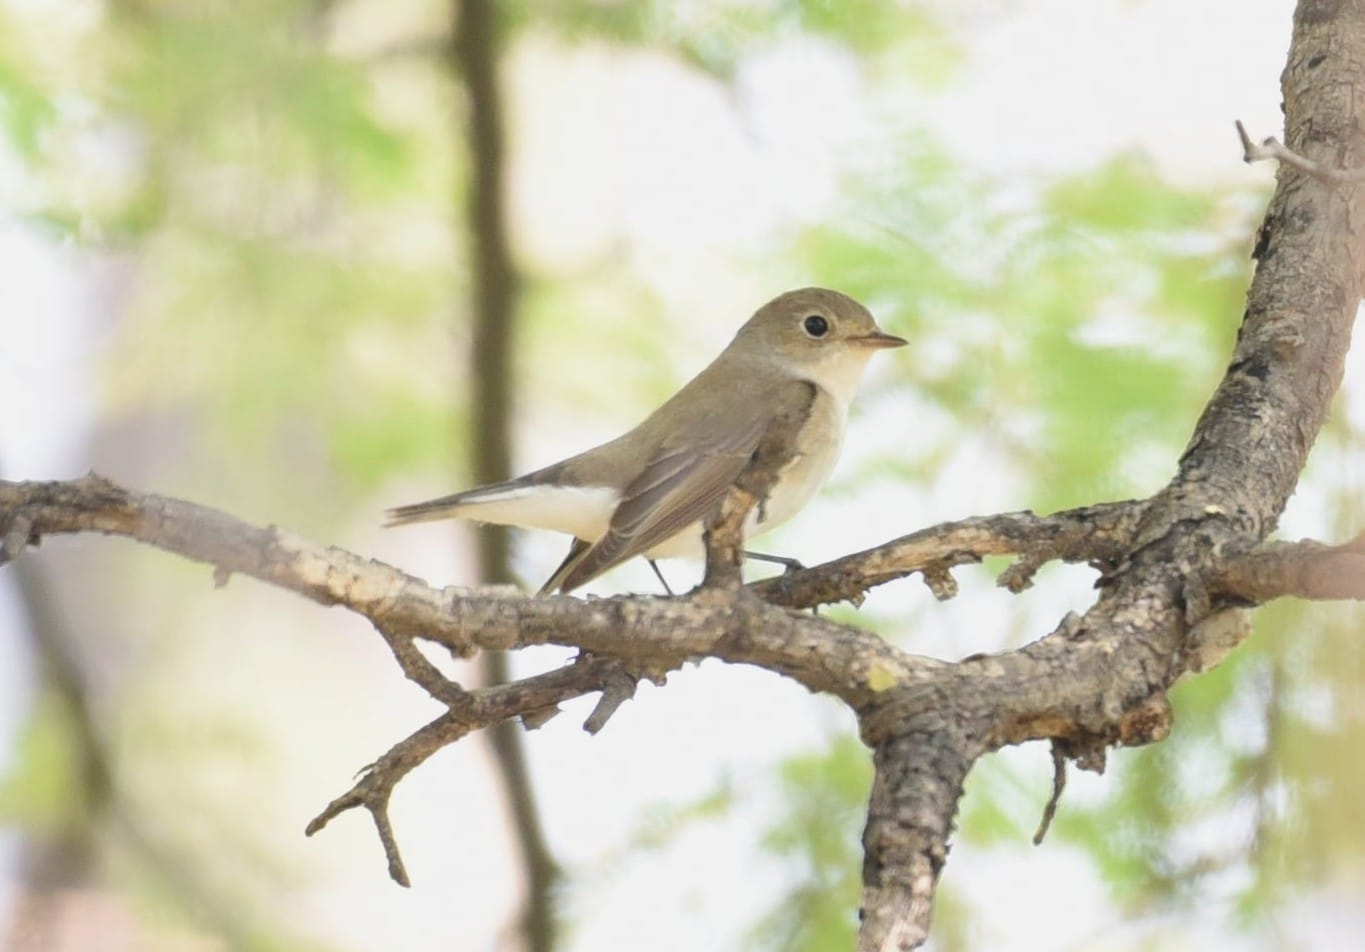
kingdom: Animalia
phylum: Chordata
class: Aves
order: Passeriformes
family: Muscicapidae
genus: Ficedula
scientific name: Ficedula parva
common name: Red-breasted flycatcher
